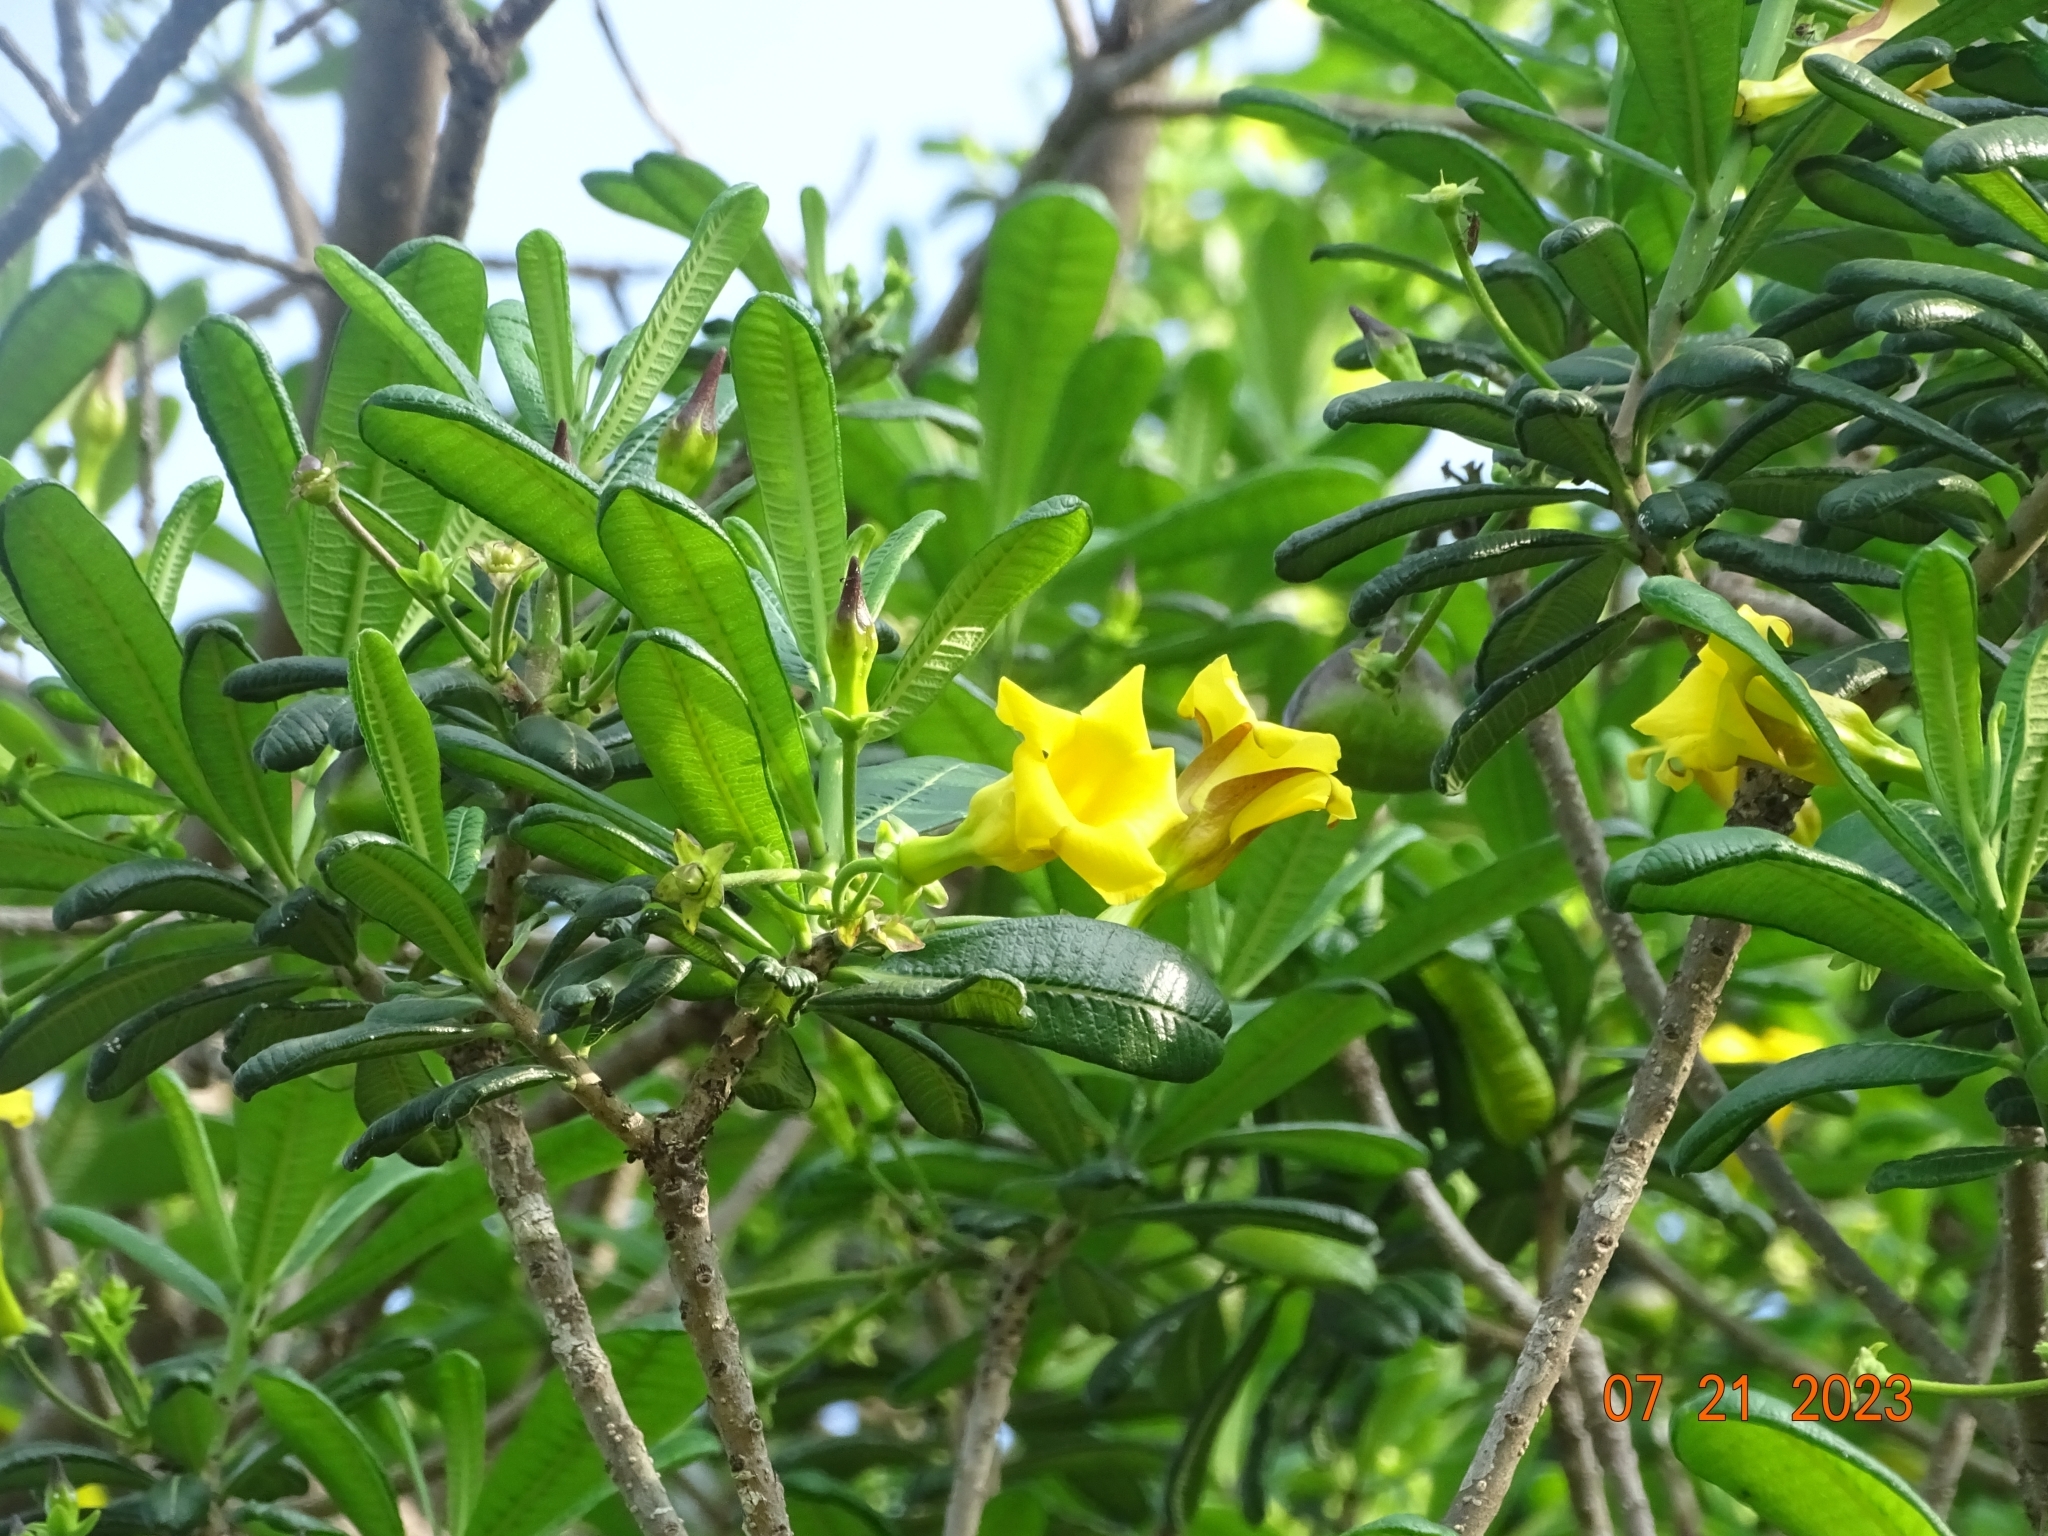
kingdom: Plantae
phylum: Tracheophyta
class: Magnoliopsida
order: Gentianales
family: Apocynaceae
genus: Cascabela
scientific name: Cascabela ovata
